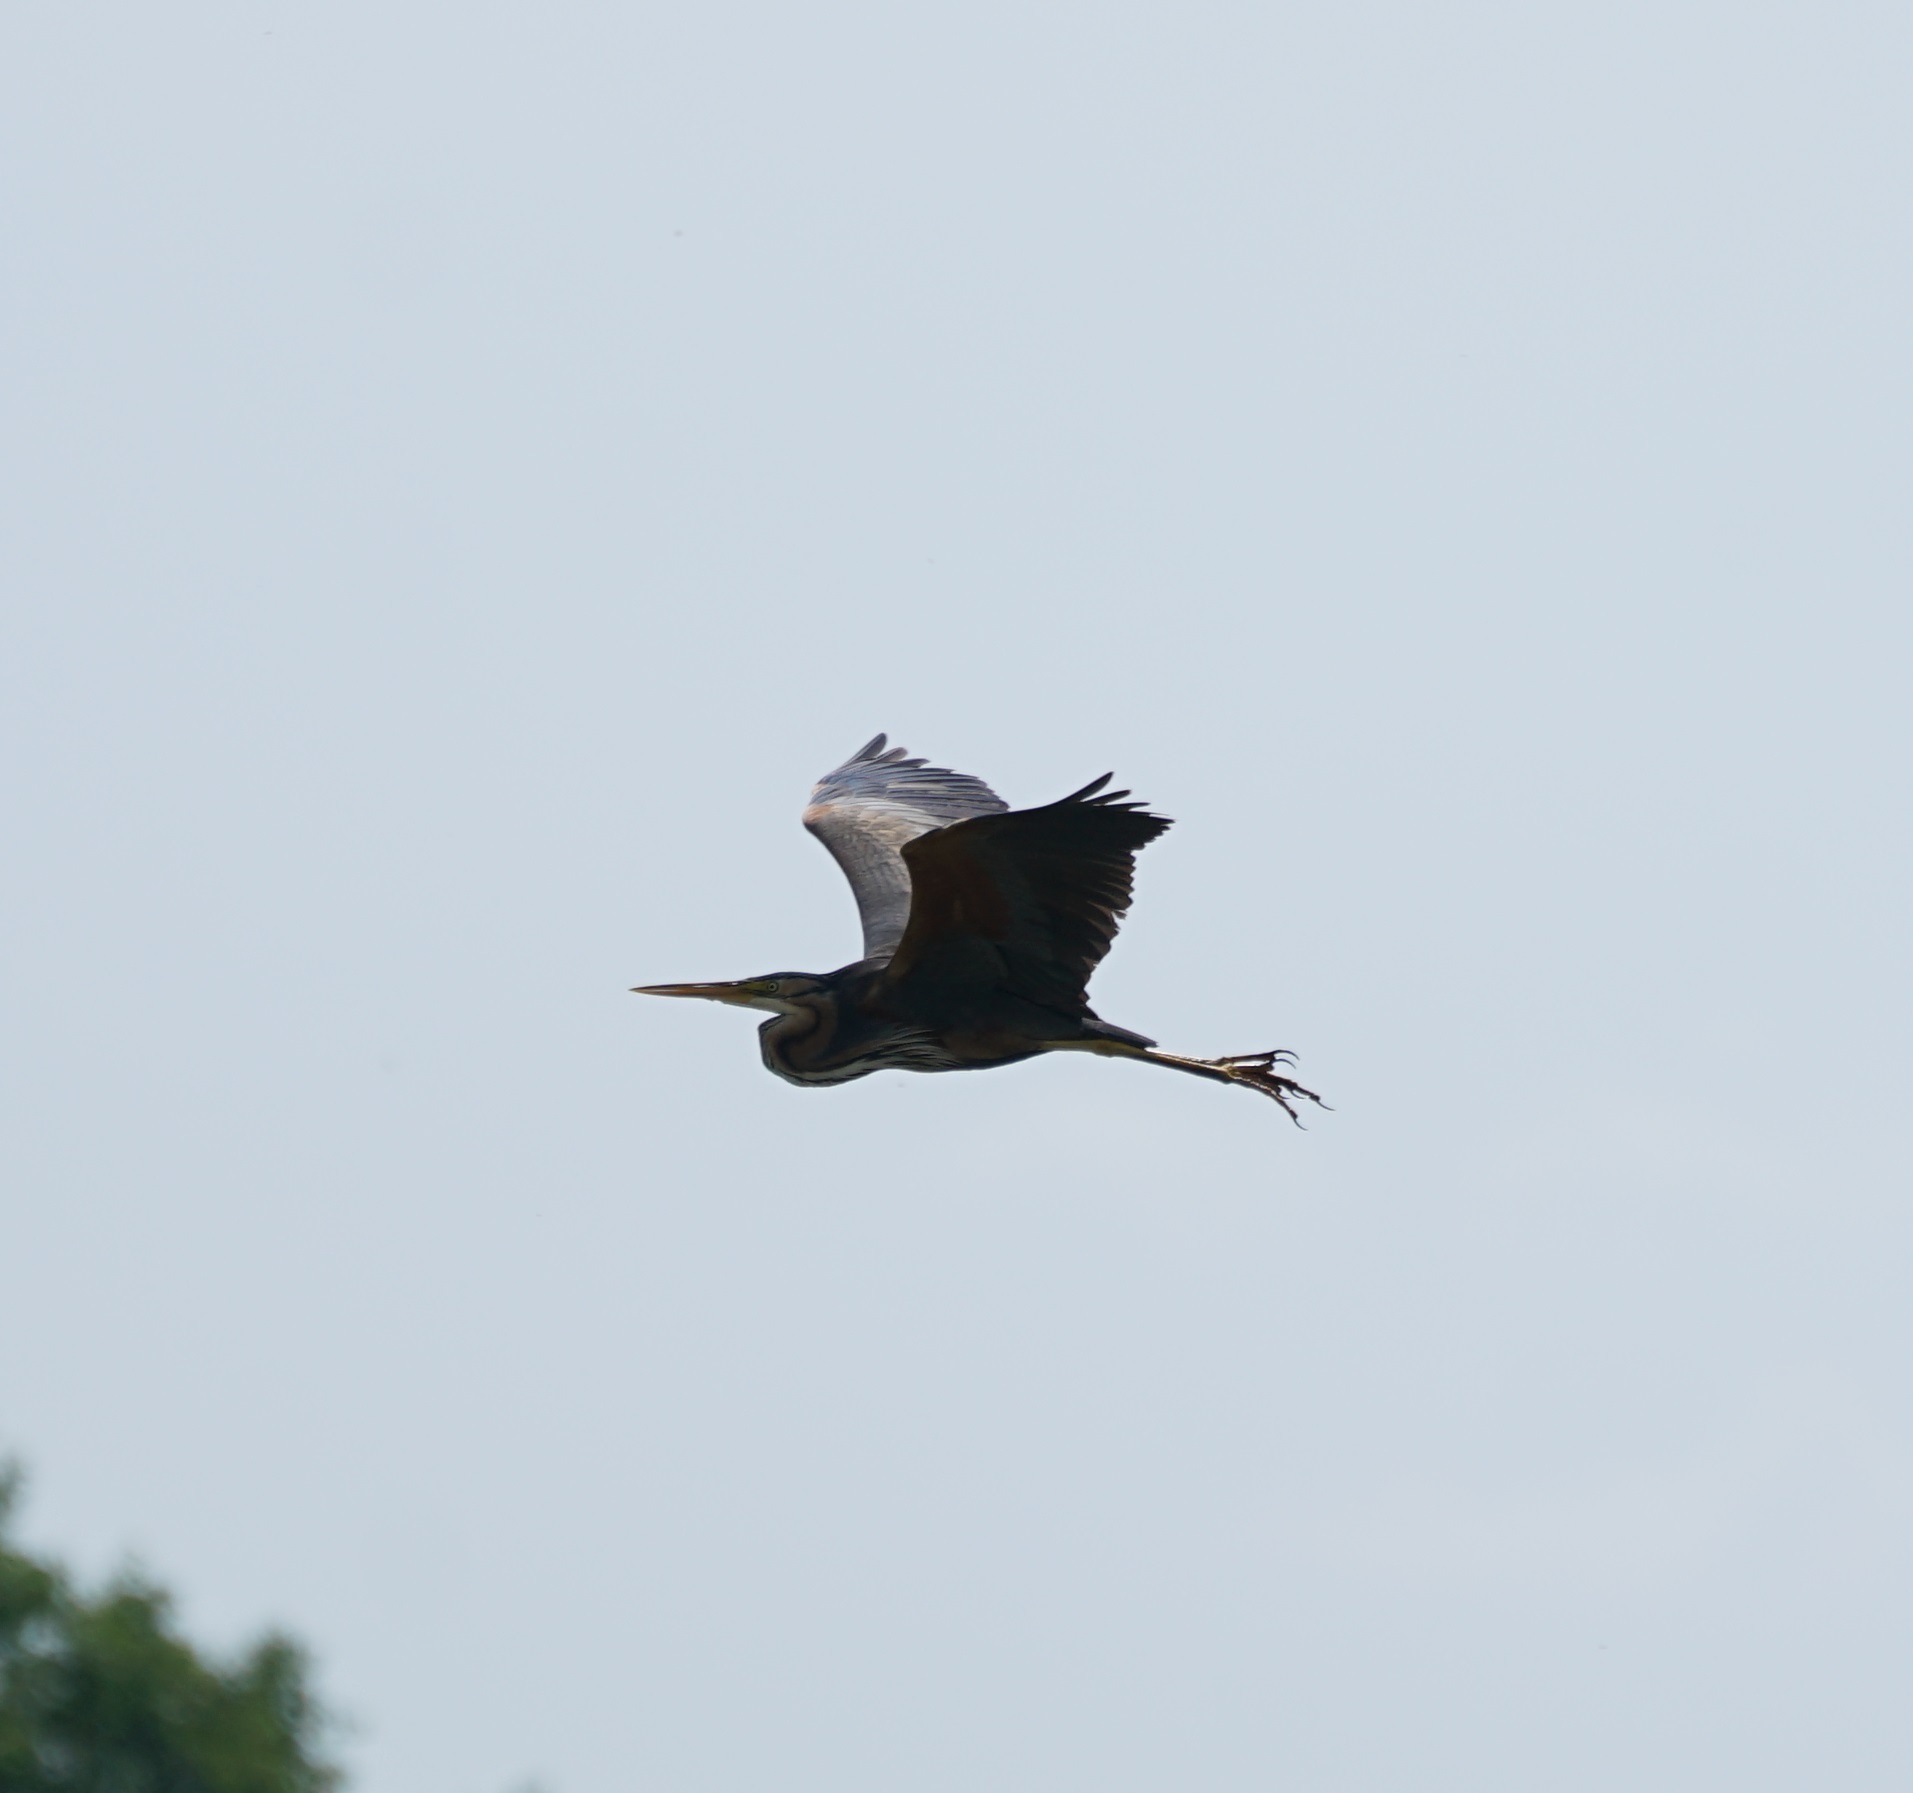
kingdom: Animalia
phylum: Chordata
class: Aves
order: Pelecaniformes
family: Ardeidae
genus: Ardea
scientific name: Ardea purpurea
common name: Purple heron
